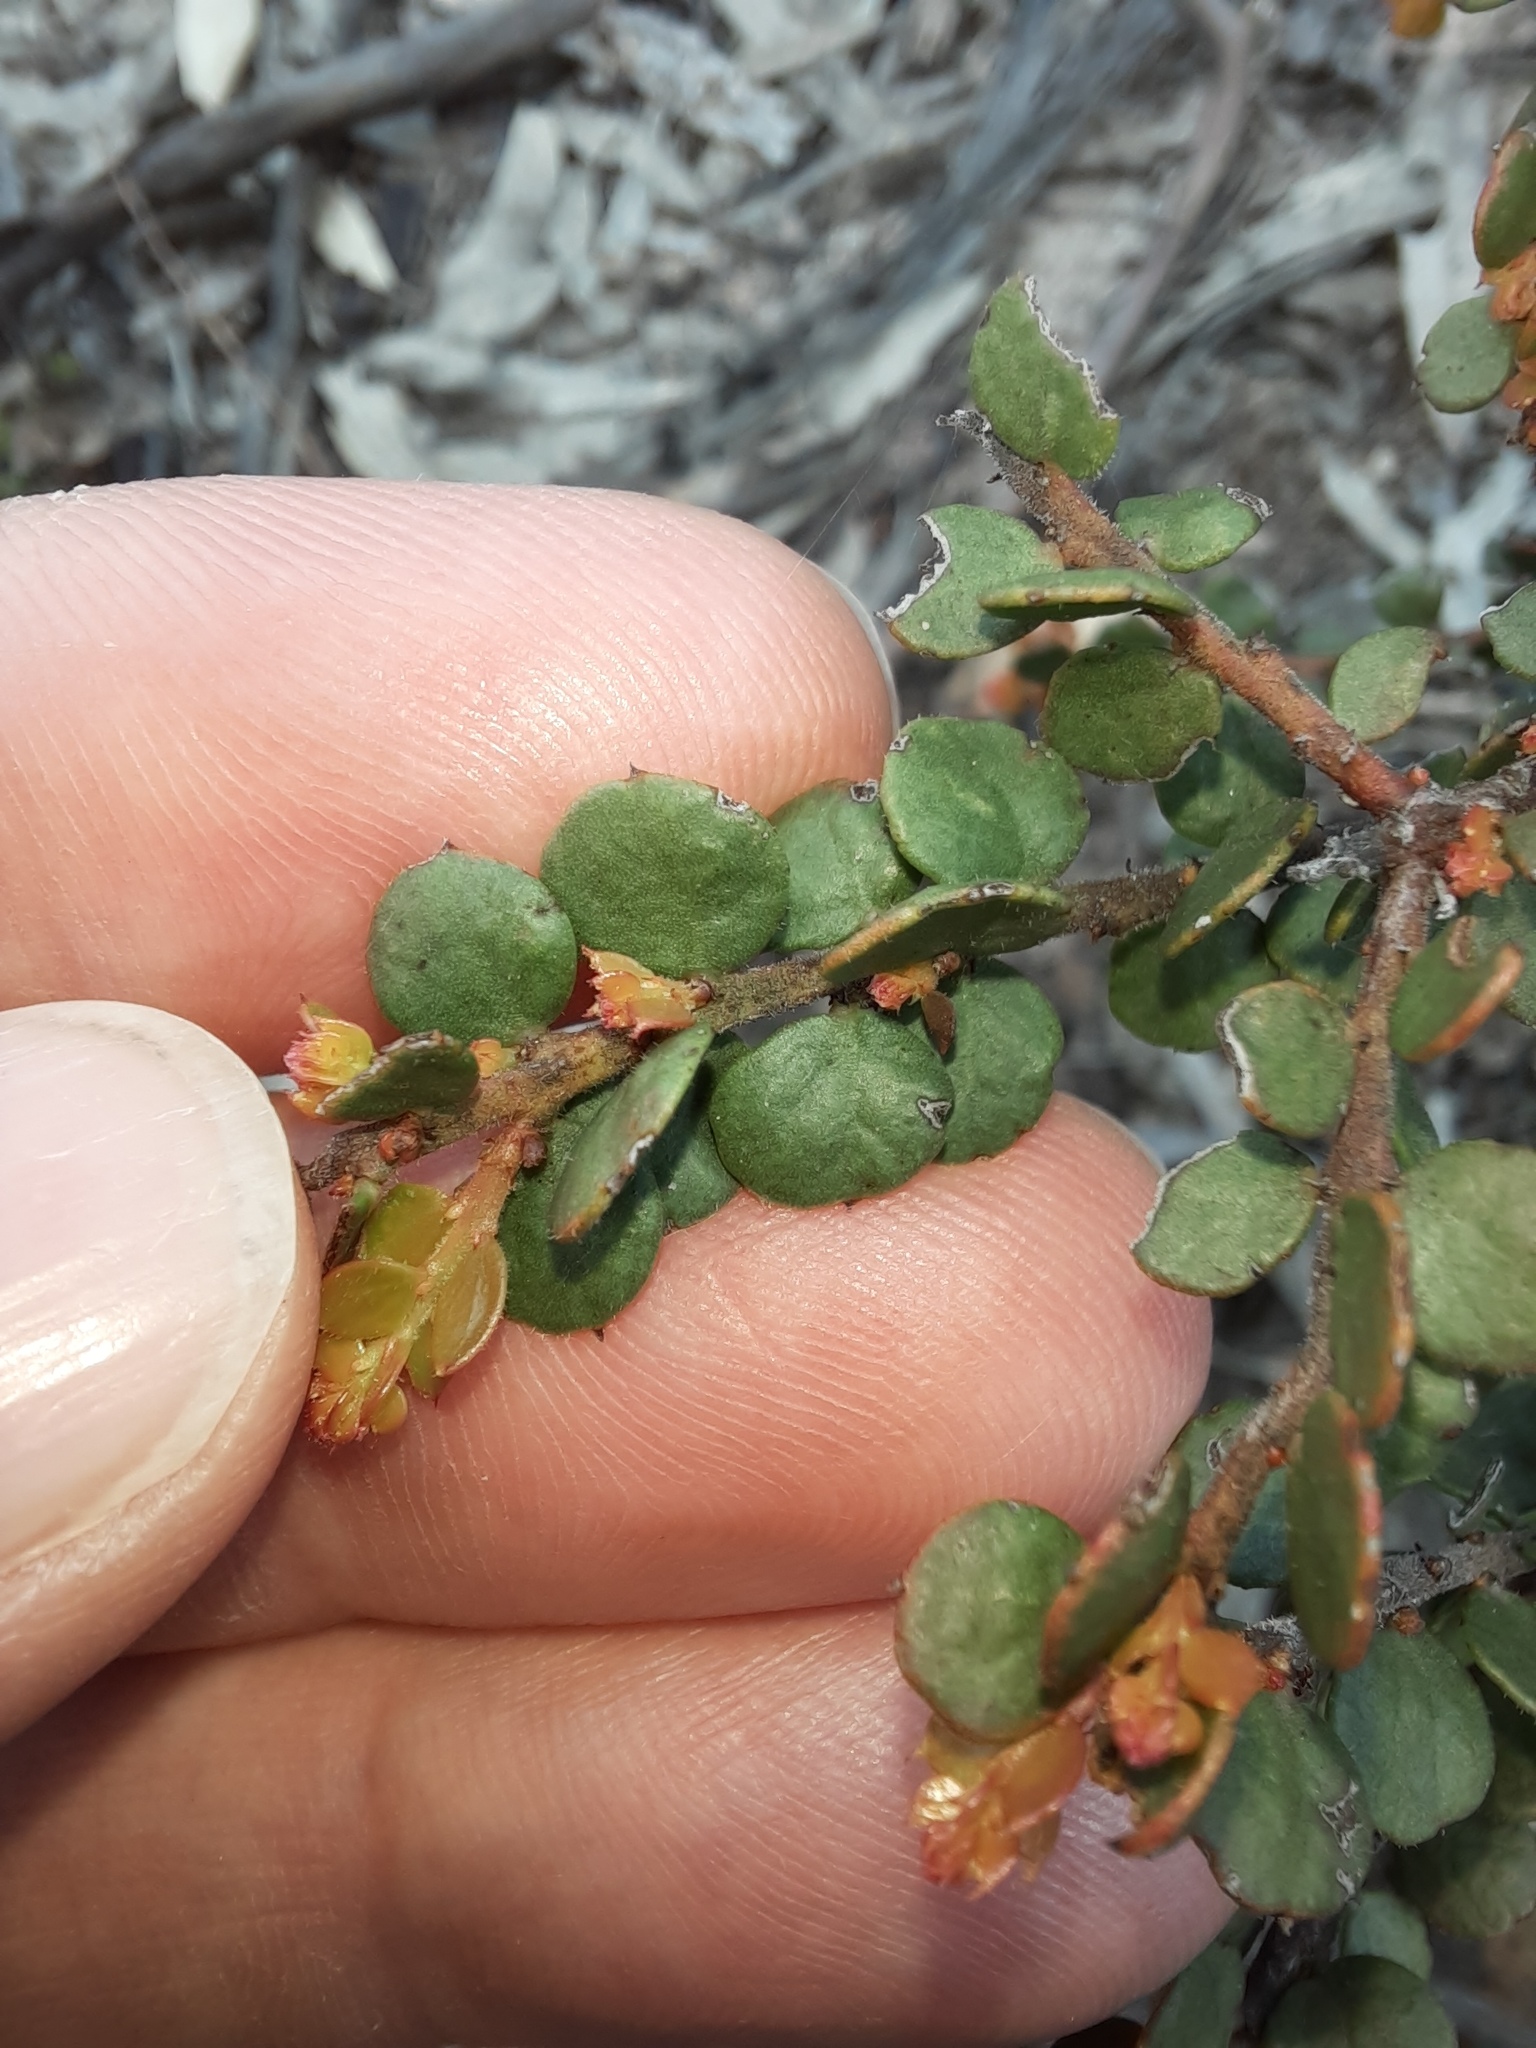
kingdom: Plantae
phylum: Tracheophyta
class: Magnoliopsida
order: Fabales
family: Fabaceae
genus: Acacia
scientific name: Acacia acinacea
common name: Gold-dust acacia
